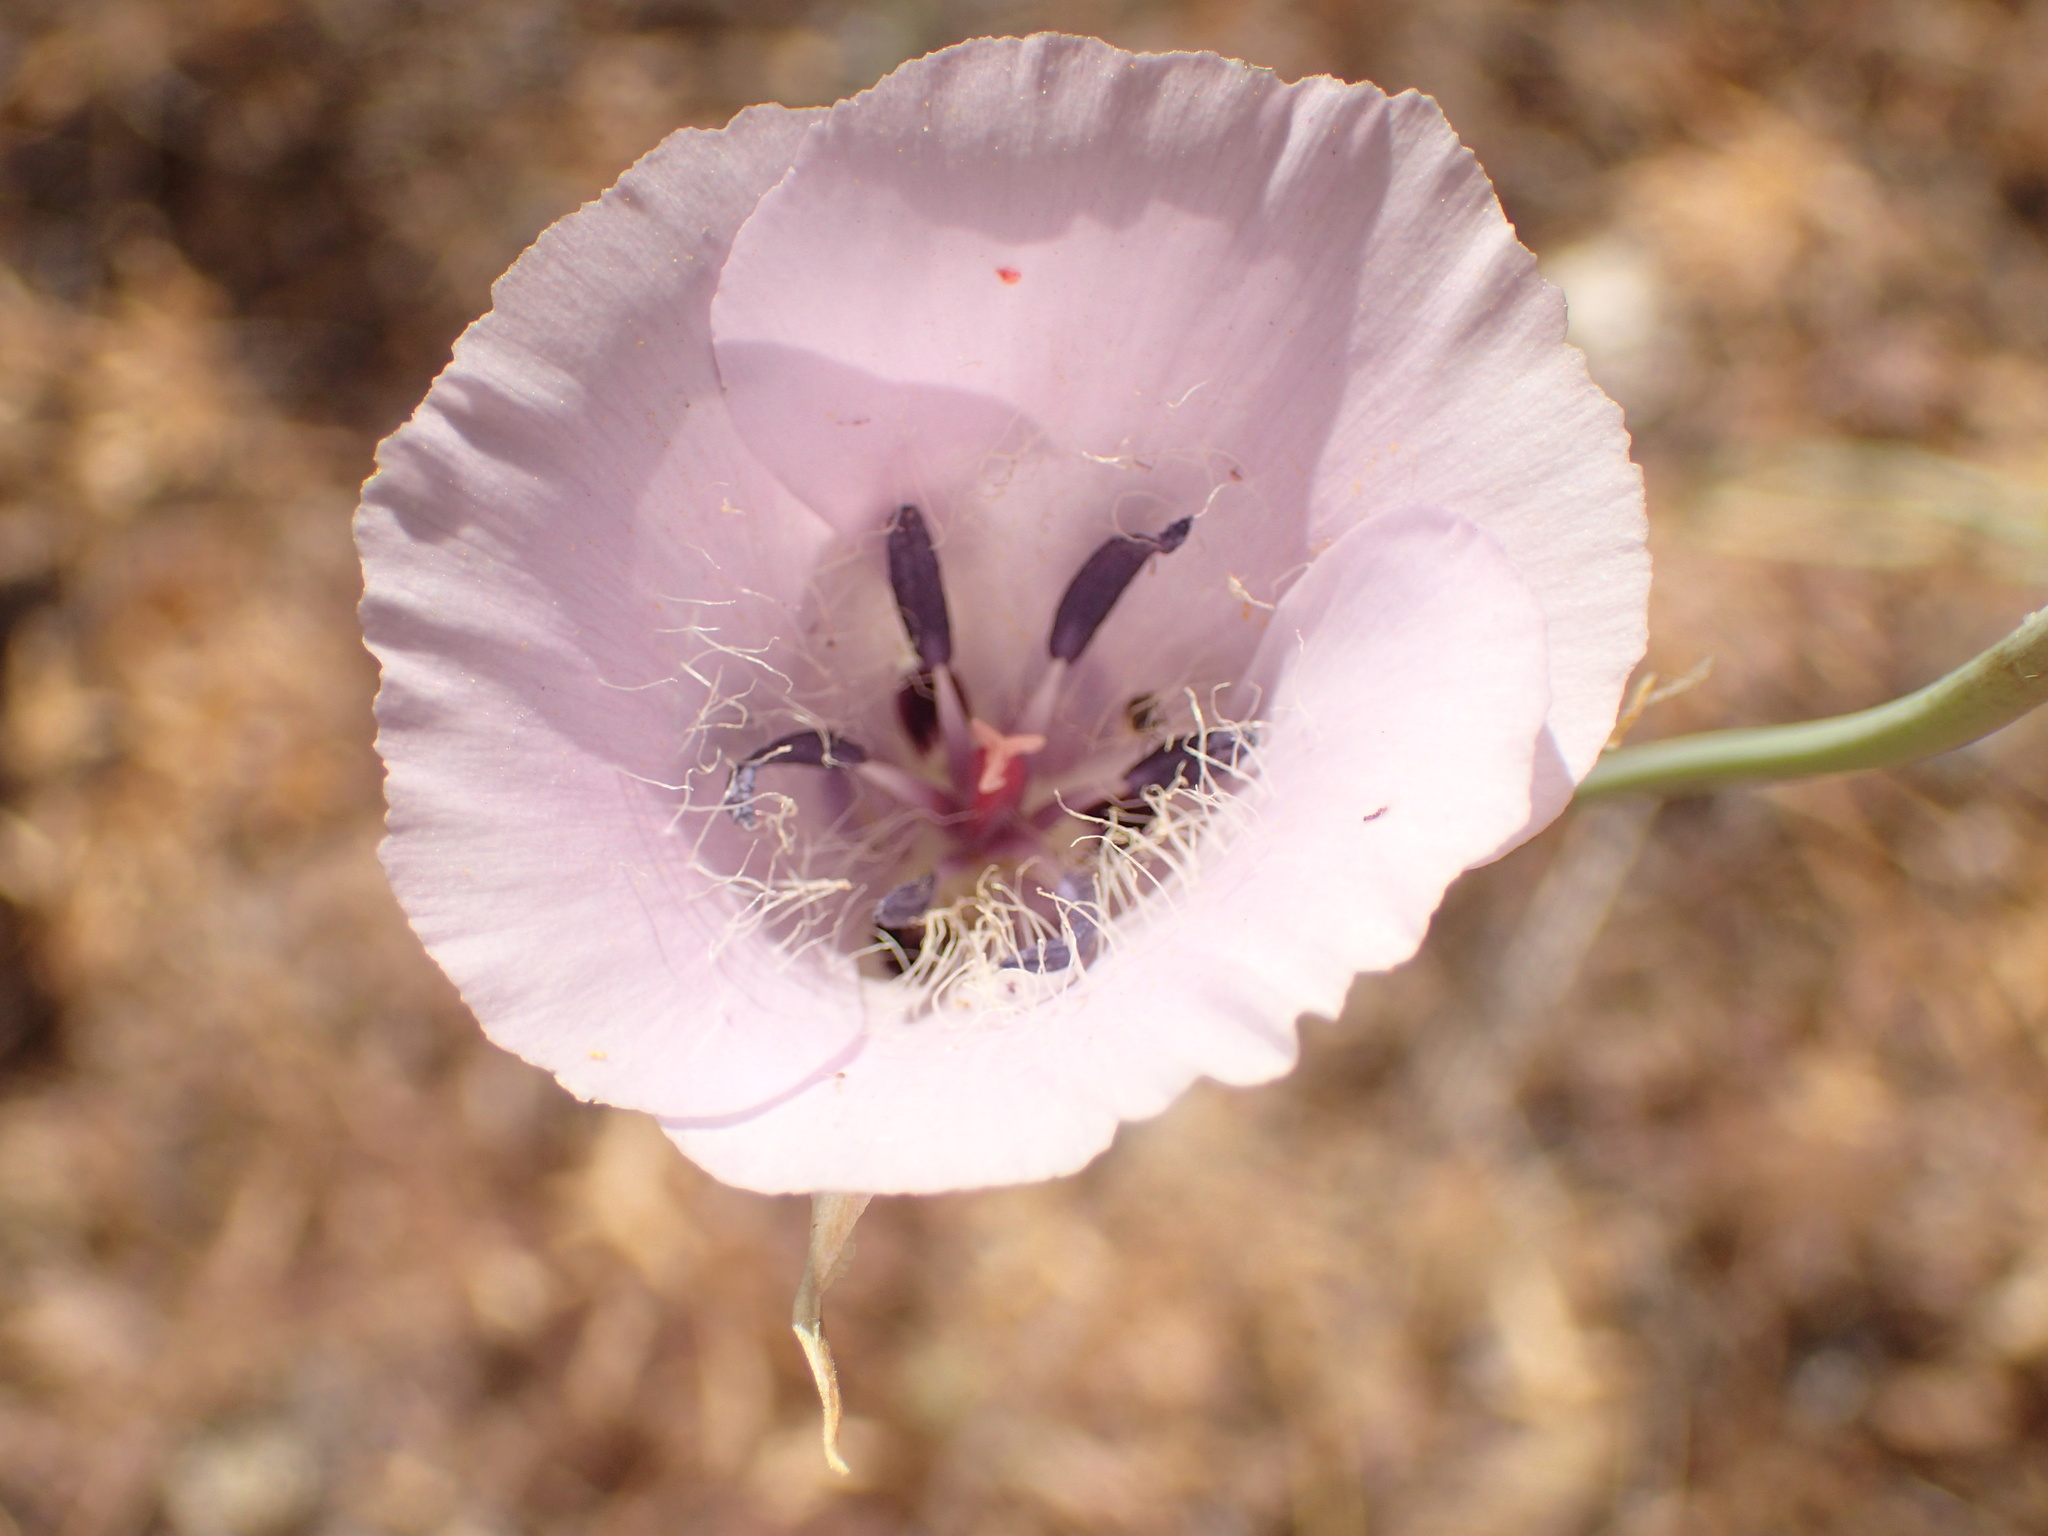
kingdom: Plantae
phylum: Tracheophyta
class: Liliopsida
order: Liliales
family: Liliaceae
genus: Calochortus
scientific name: Calochortus splendens
